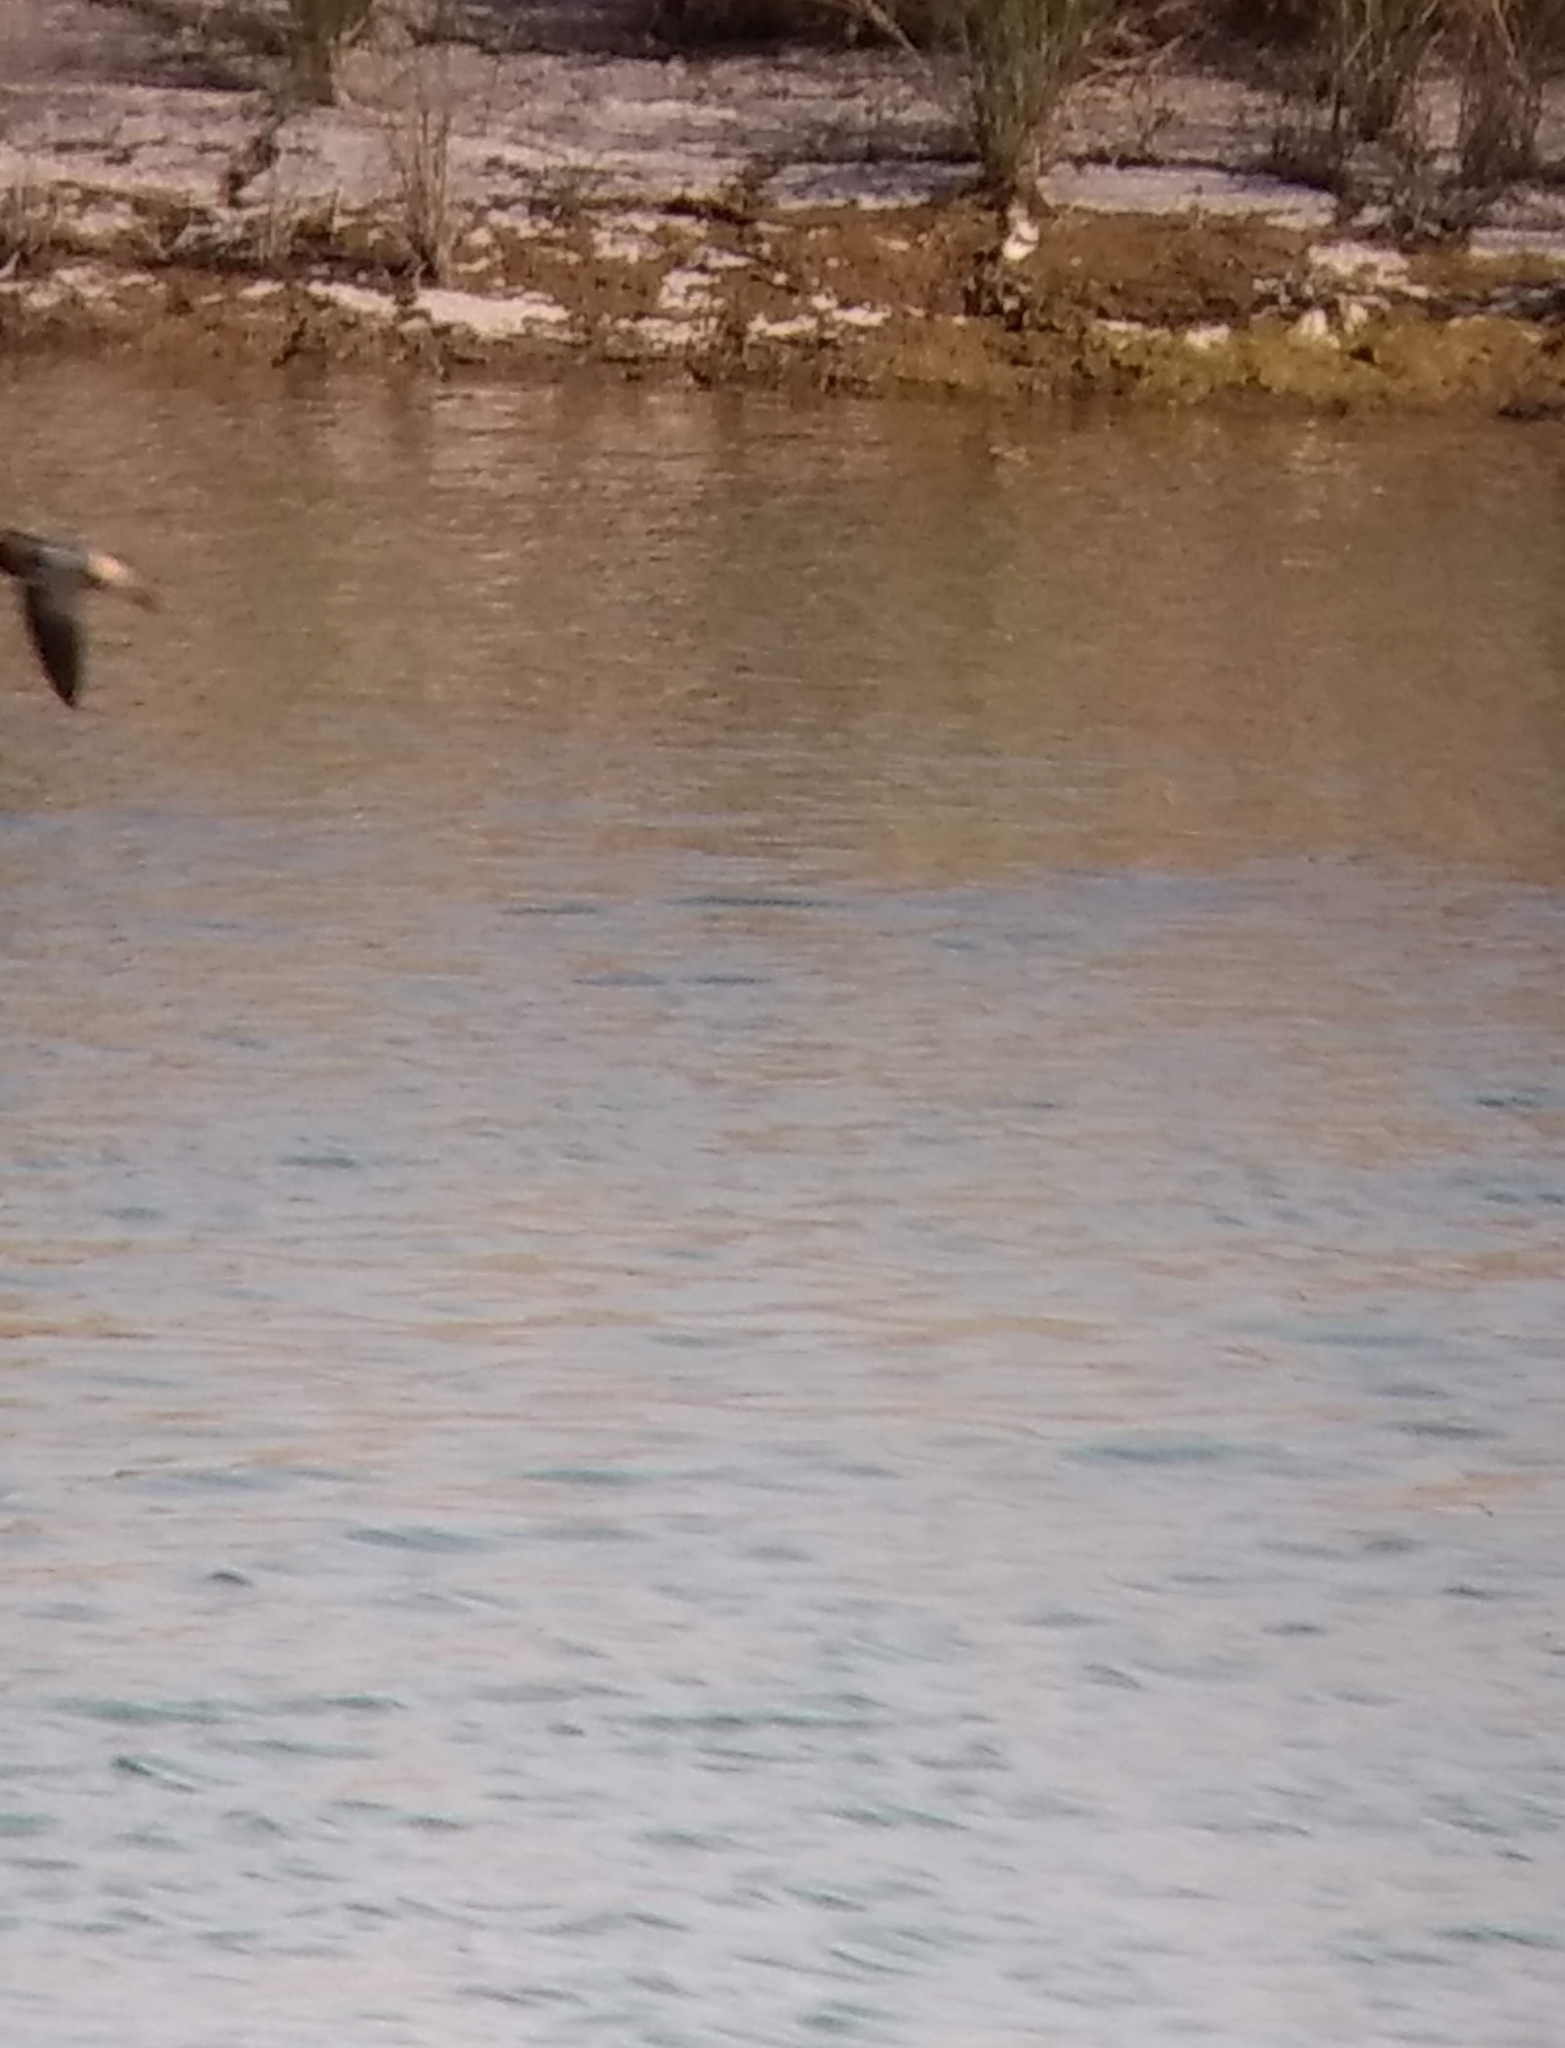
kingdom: Animalia
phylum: Chordata
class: Aves
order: Passeriformes
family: Hirundinidae
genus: Petrochelidon
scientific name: Petrochelidon pyrrhonota
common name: American cliff swallow
